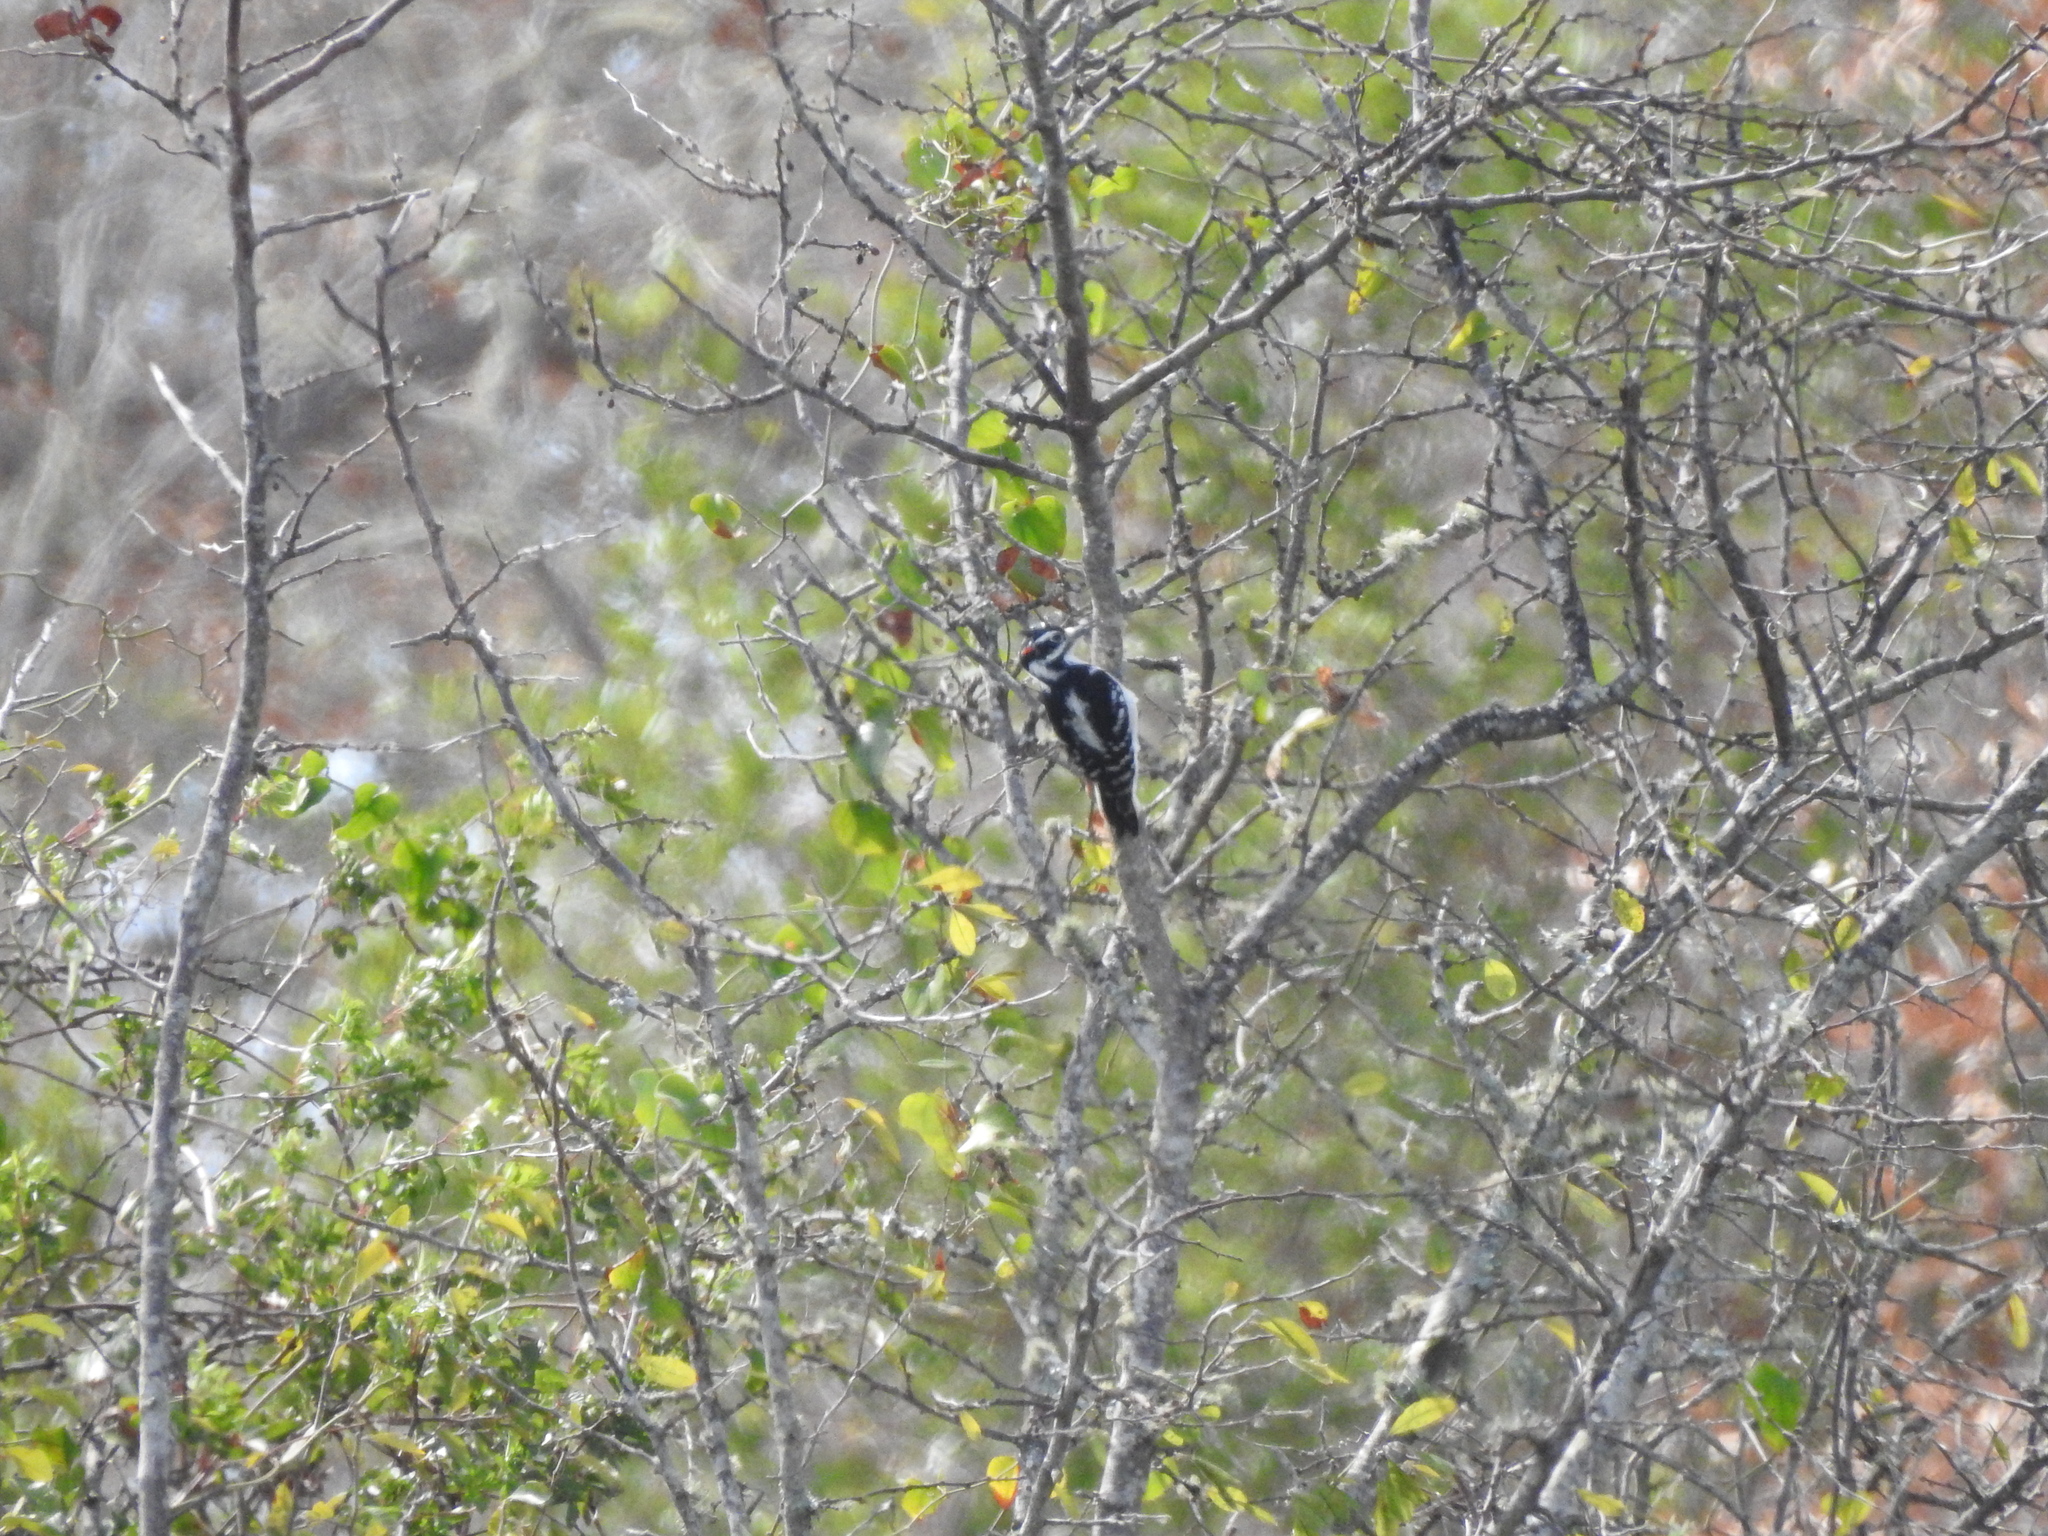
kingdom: Animalia
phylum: Chordata
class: Aves
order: Piciformes
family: Picidae
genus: Leuconotopicus
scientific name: Leuconotopicus villosus
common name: Hairy woodpecker
